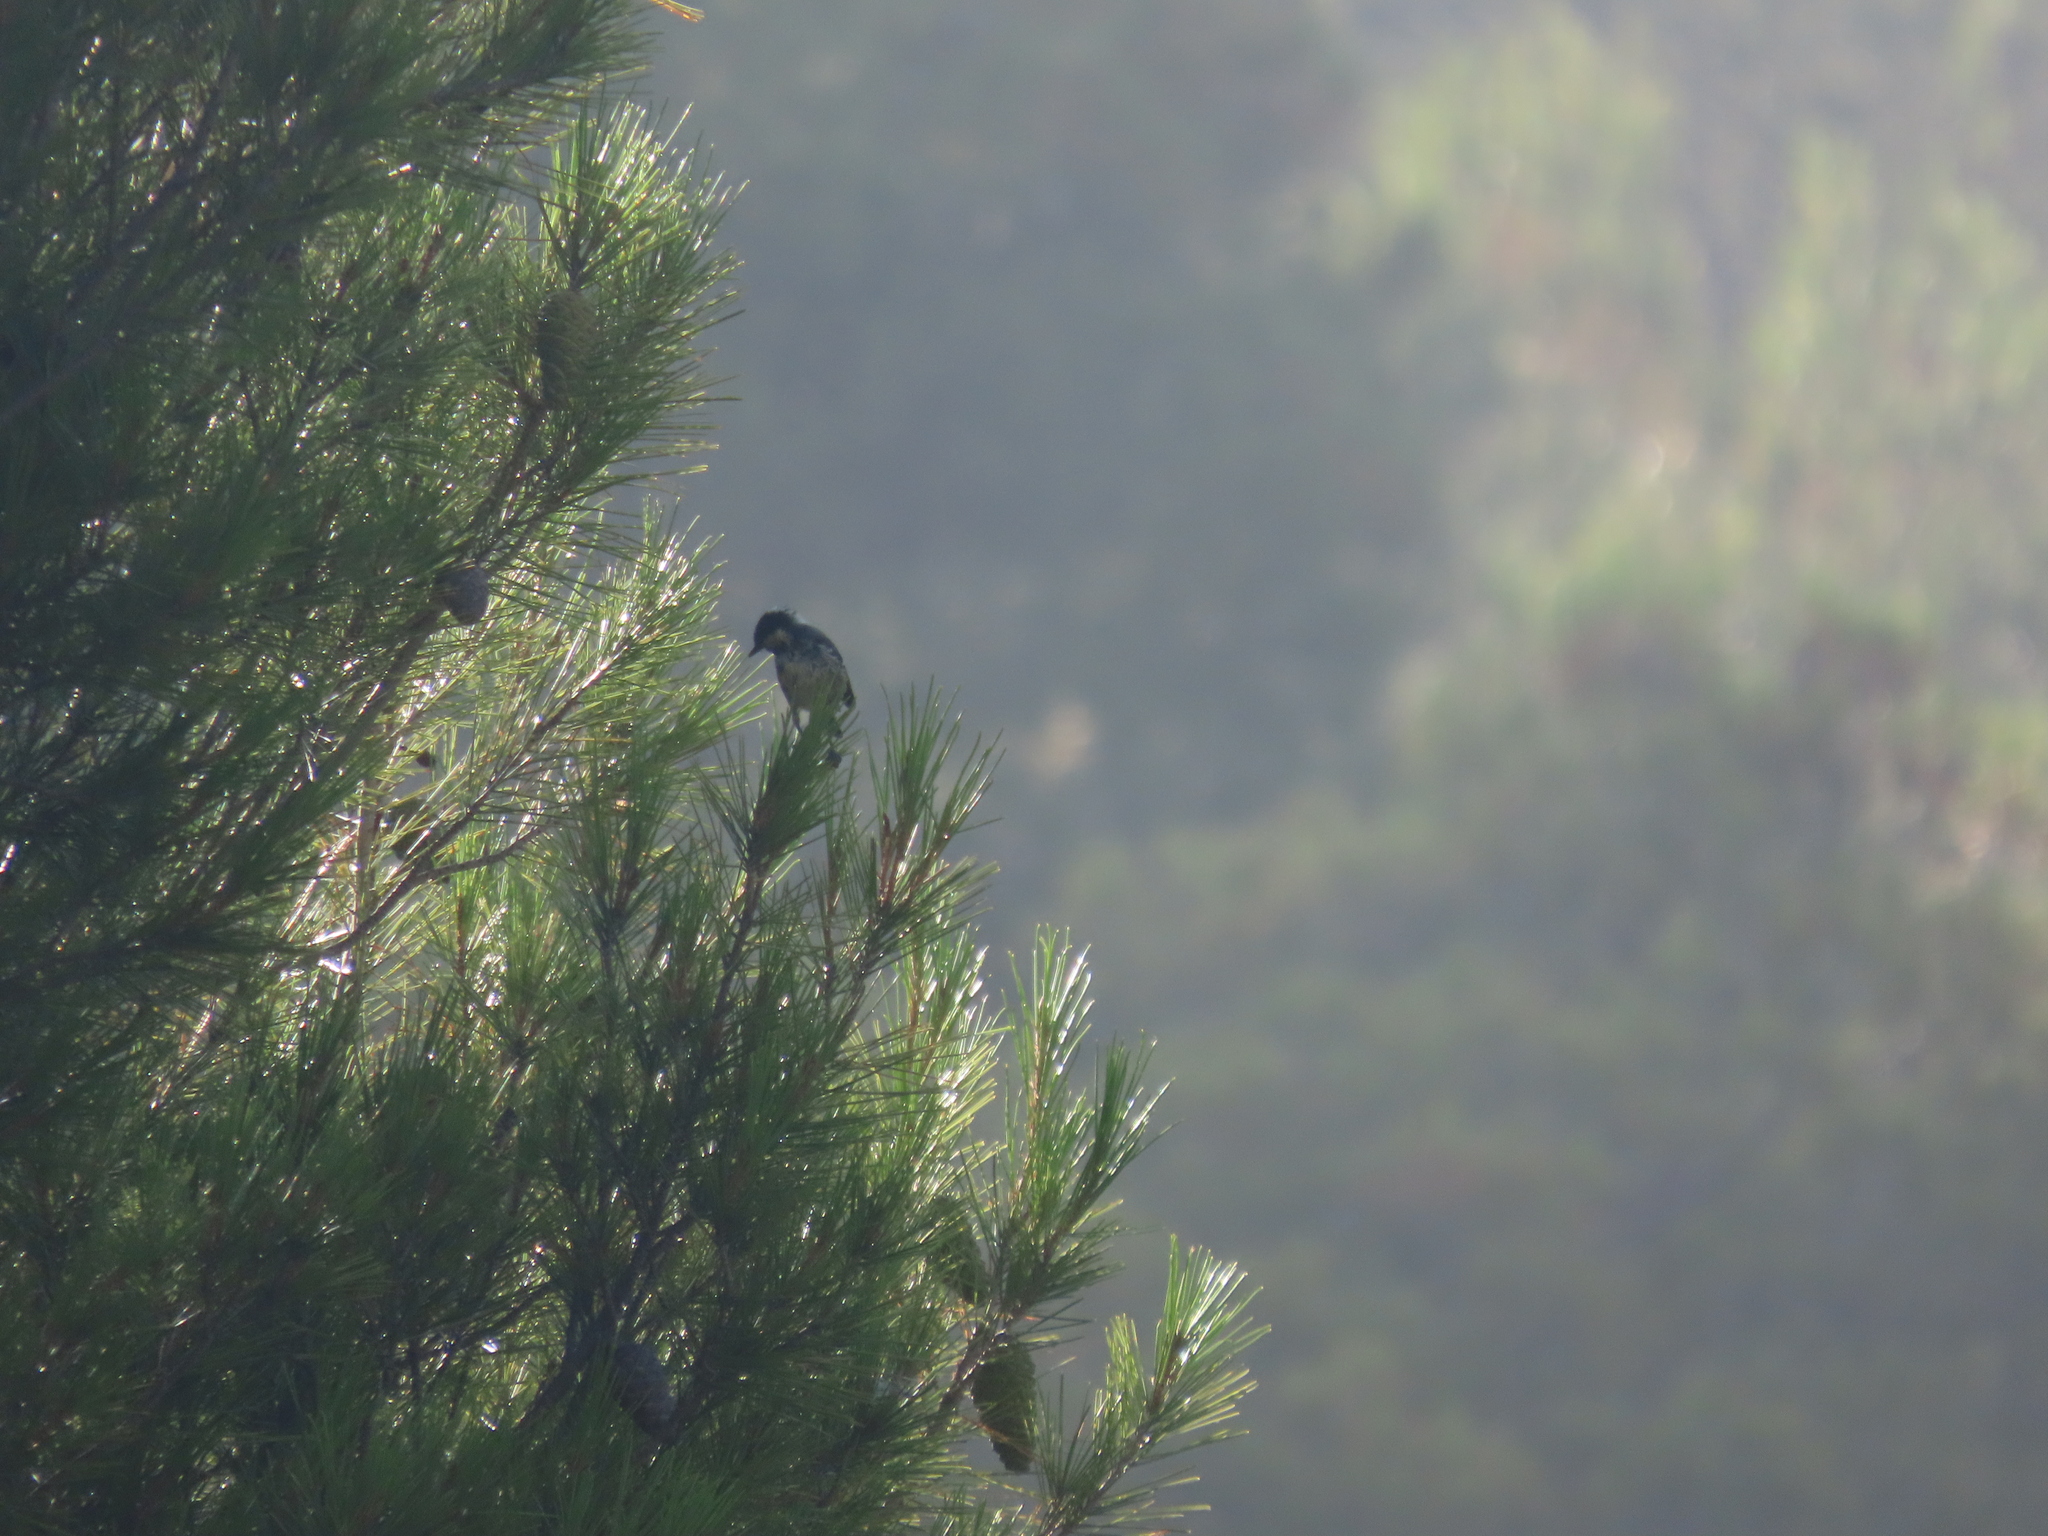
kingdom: Animalia
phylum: Chordata
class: Aves
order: Passeriformes
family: Paridae
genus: Parus
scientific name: Parus major
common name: Great tit
